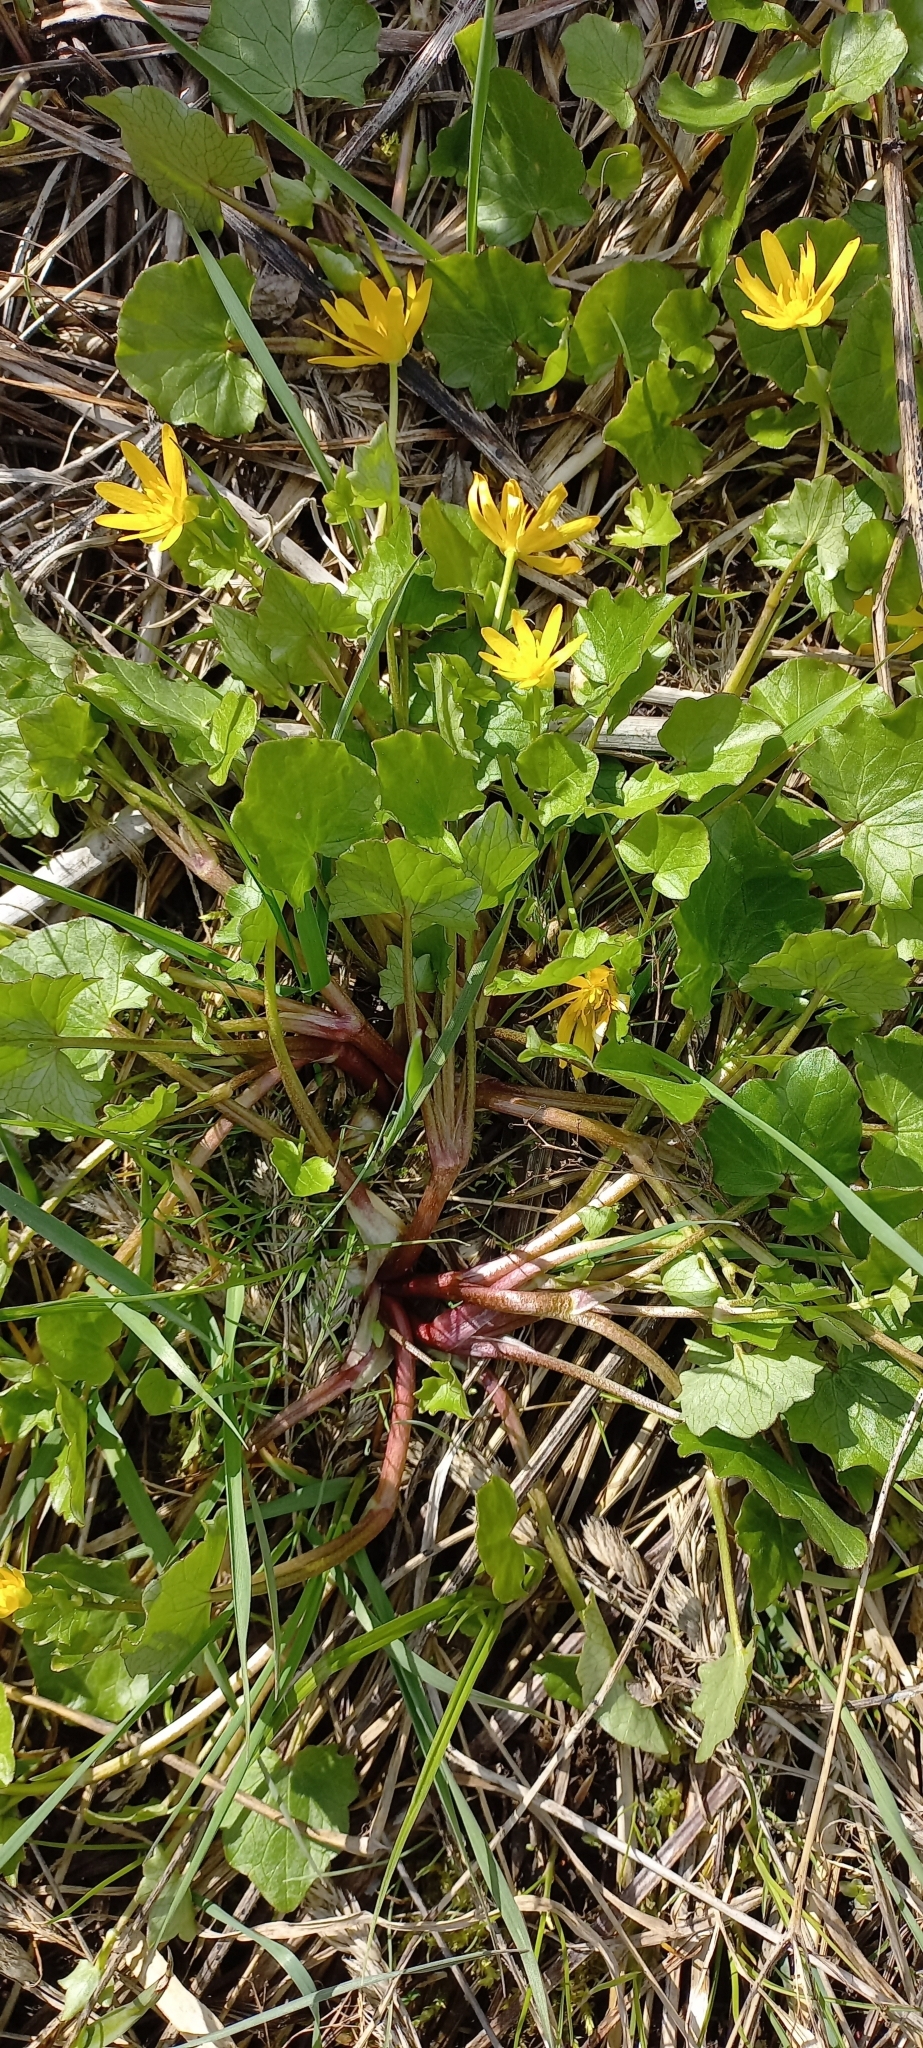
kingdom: Plantae
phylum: Tracheophyta
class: Magnoliopsida
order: Ranunculales
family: Ranunculaceae
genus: Ficaria
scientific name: Ficaria verna
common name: Lesser celandine
